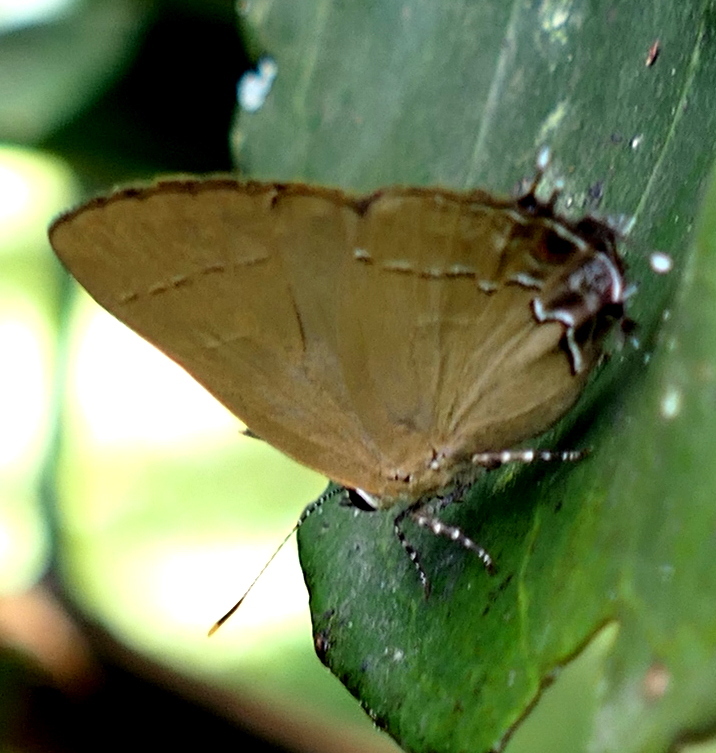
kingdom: Animalia
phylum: Arthropoda
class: Insecta
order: Lepidoptera
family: Lycaenidae
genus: Ziegleria
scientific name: Ziegleria hesperitis
